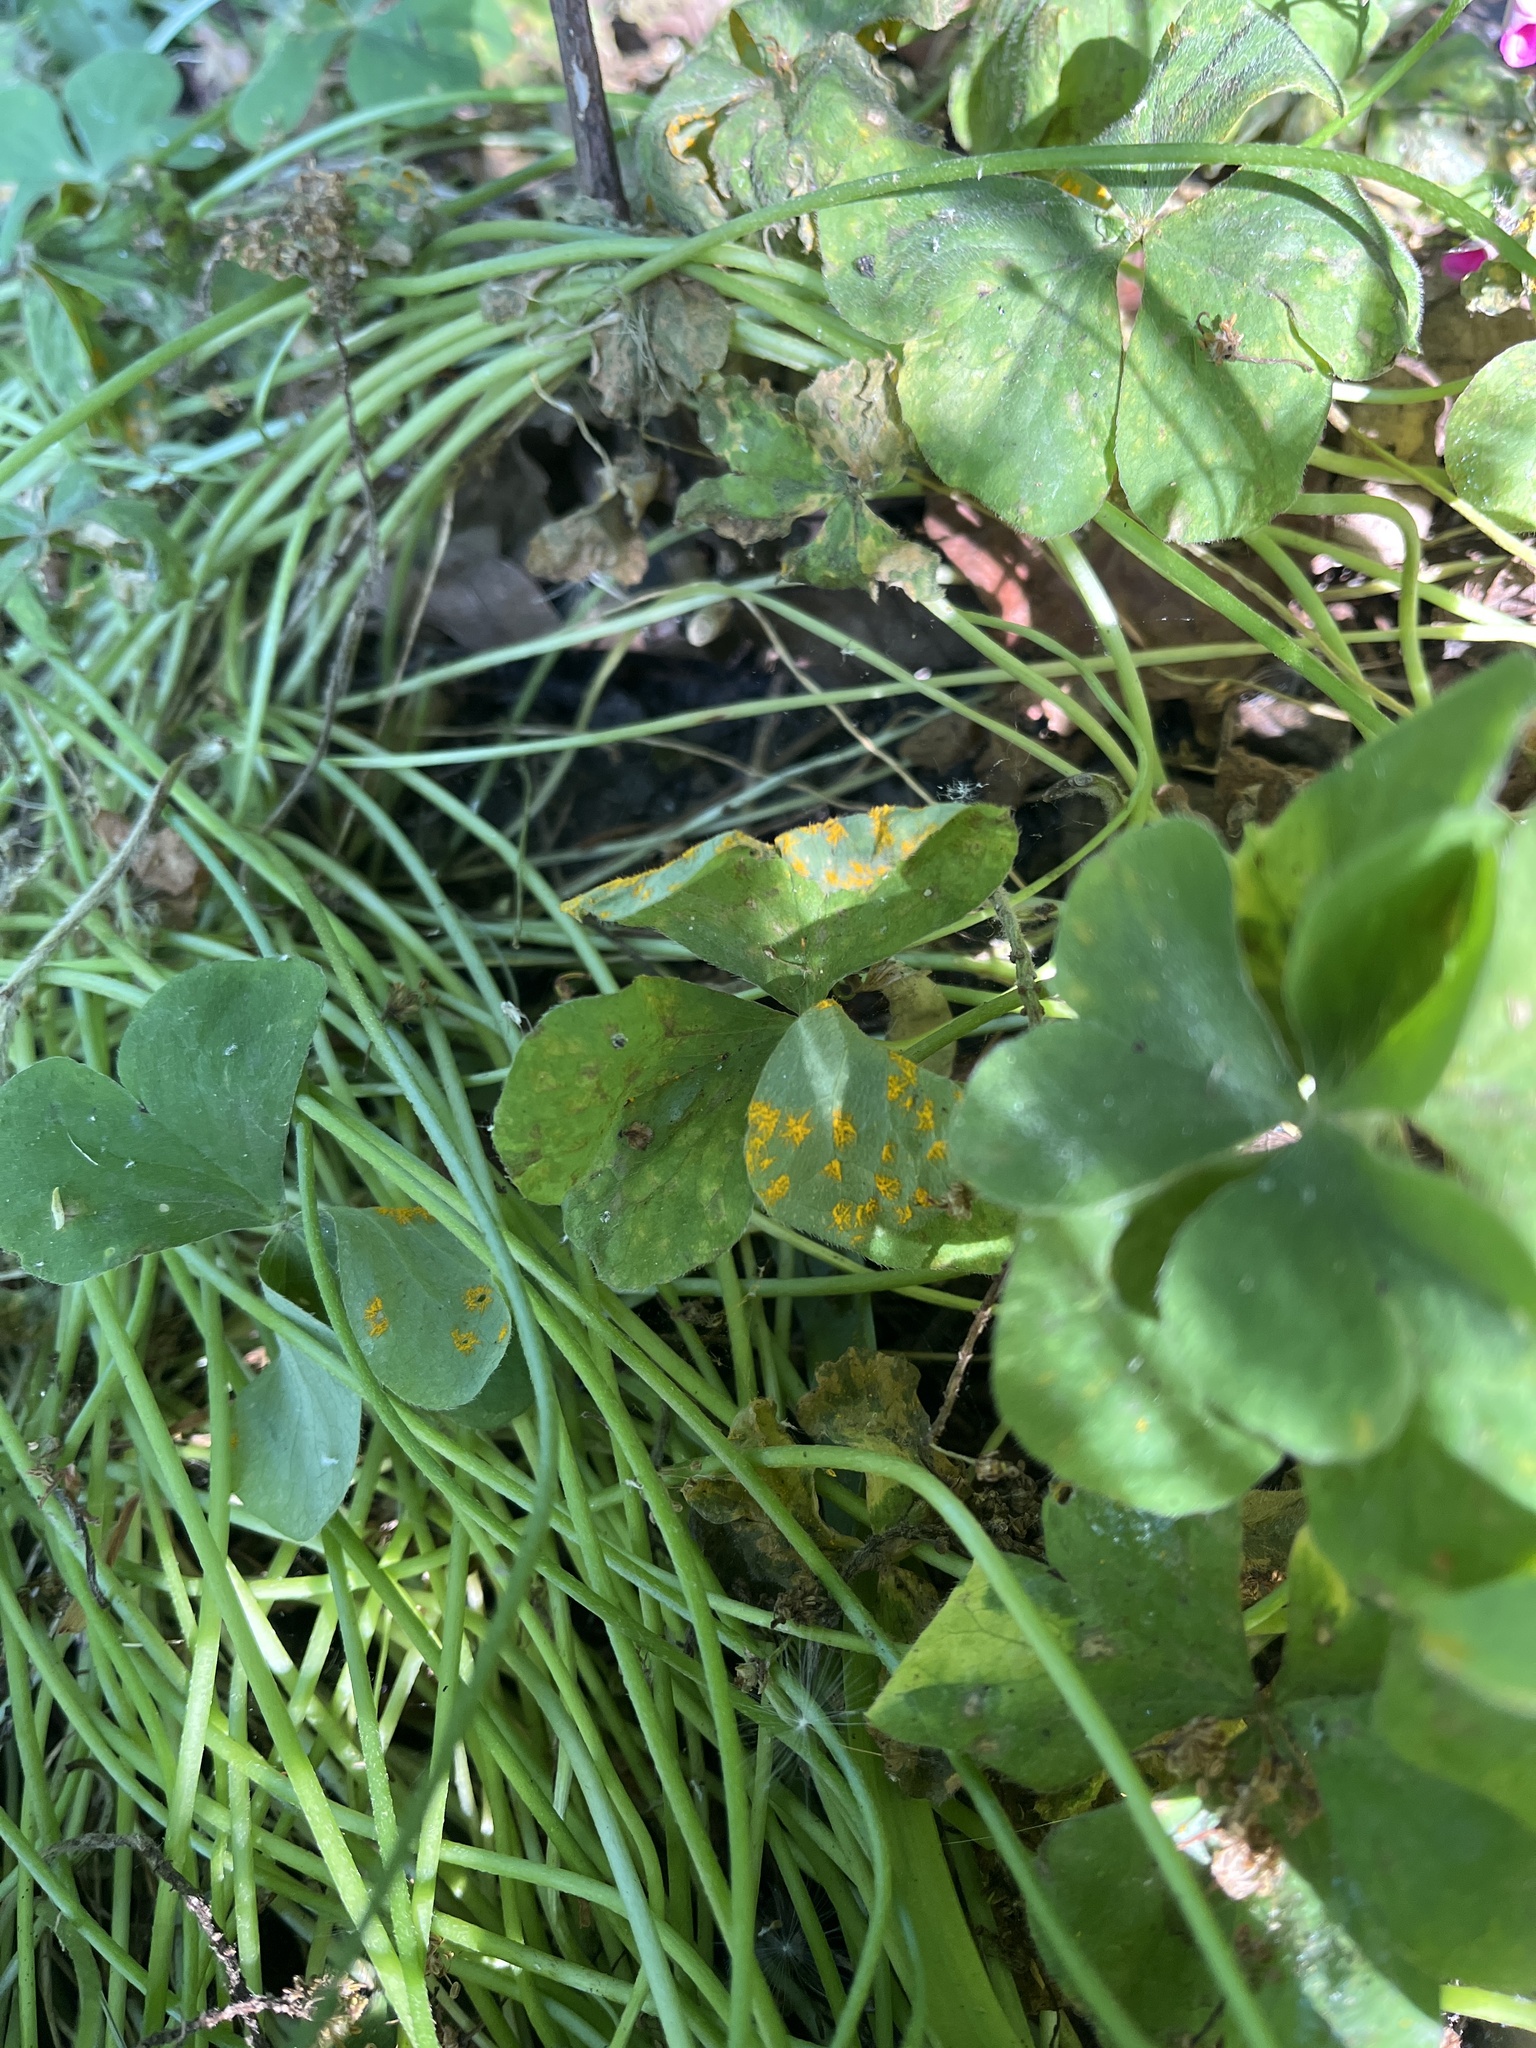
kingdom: Fungi
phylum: Basidiomycota
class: Pucciniomycetes
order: Pucciniales
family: Pucciniaceae
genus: Puccinia
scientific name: Puccinia oxalidis
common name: Oxalis rust
